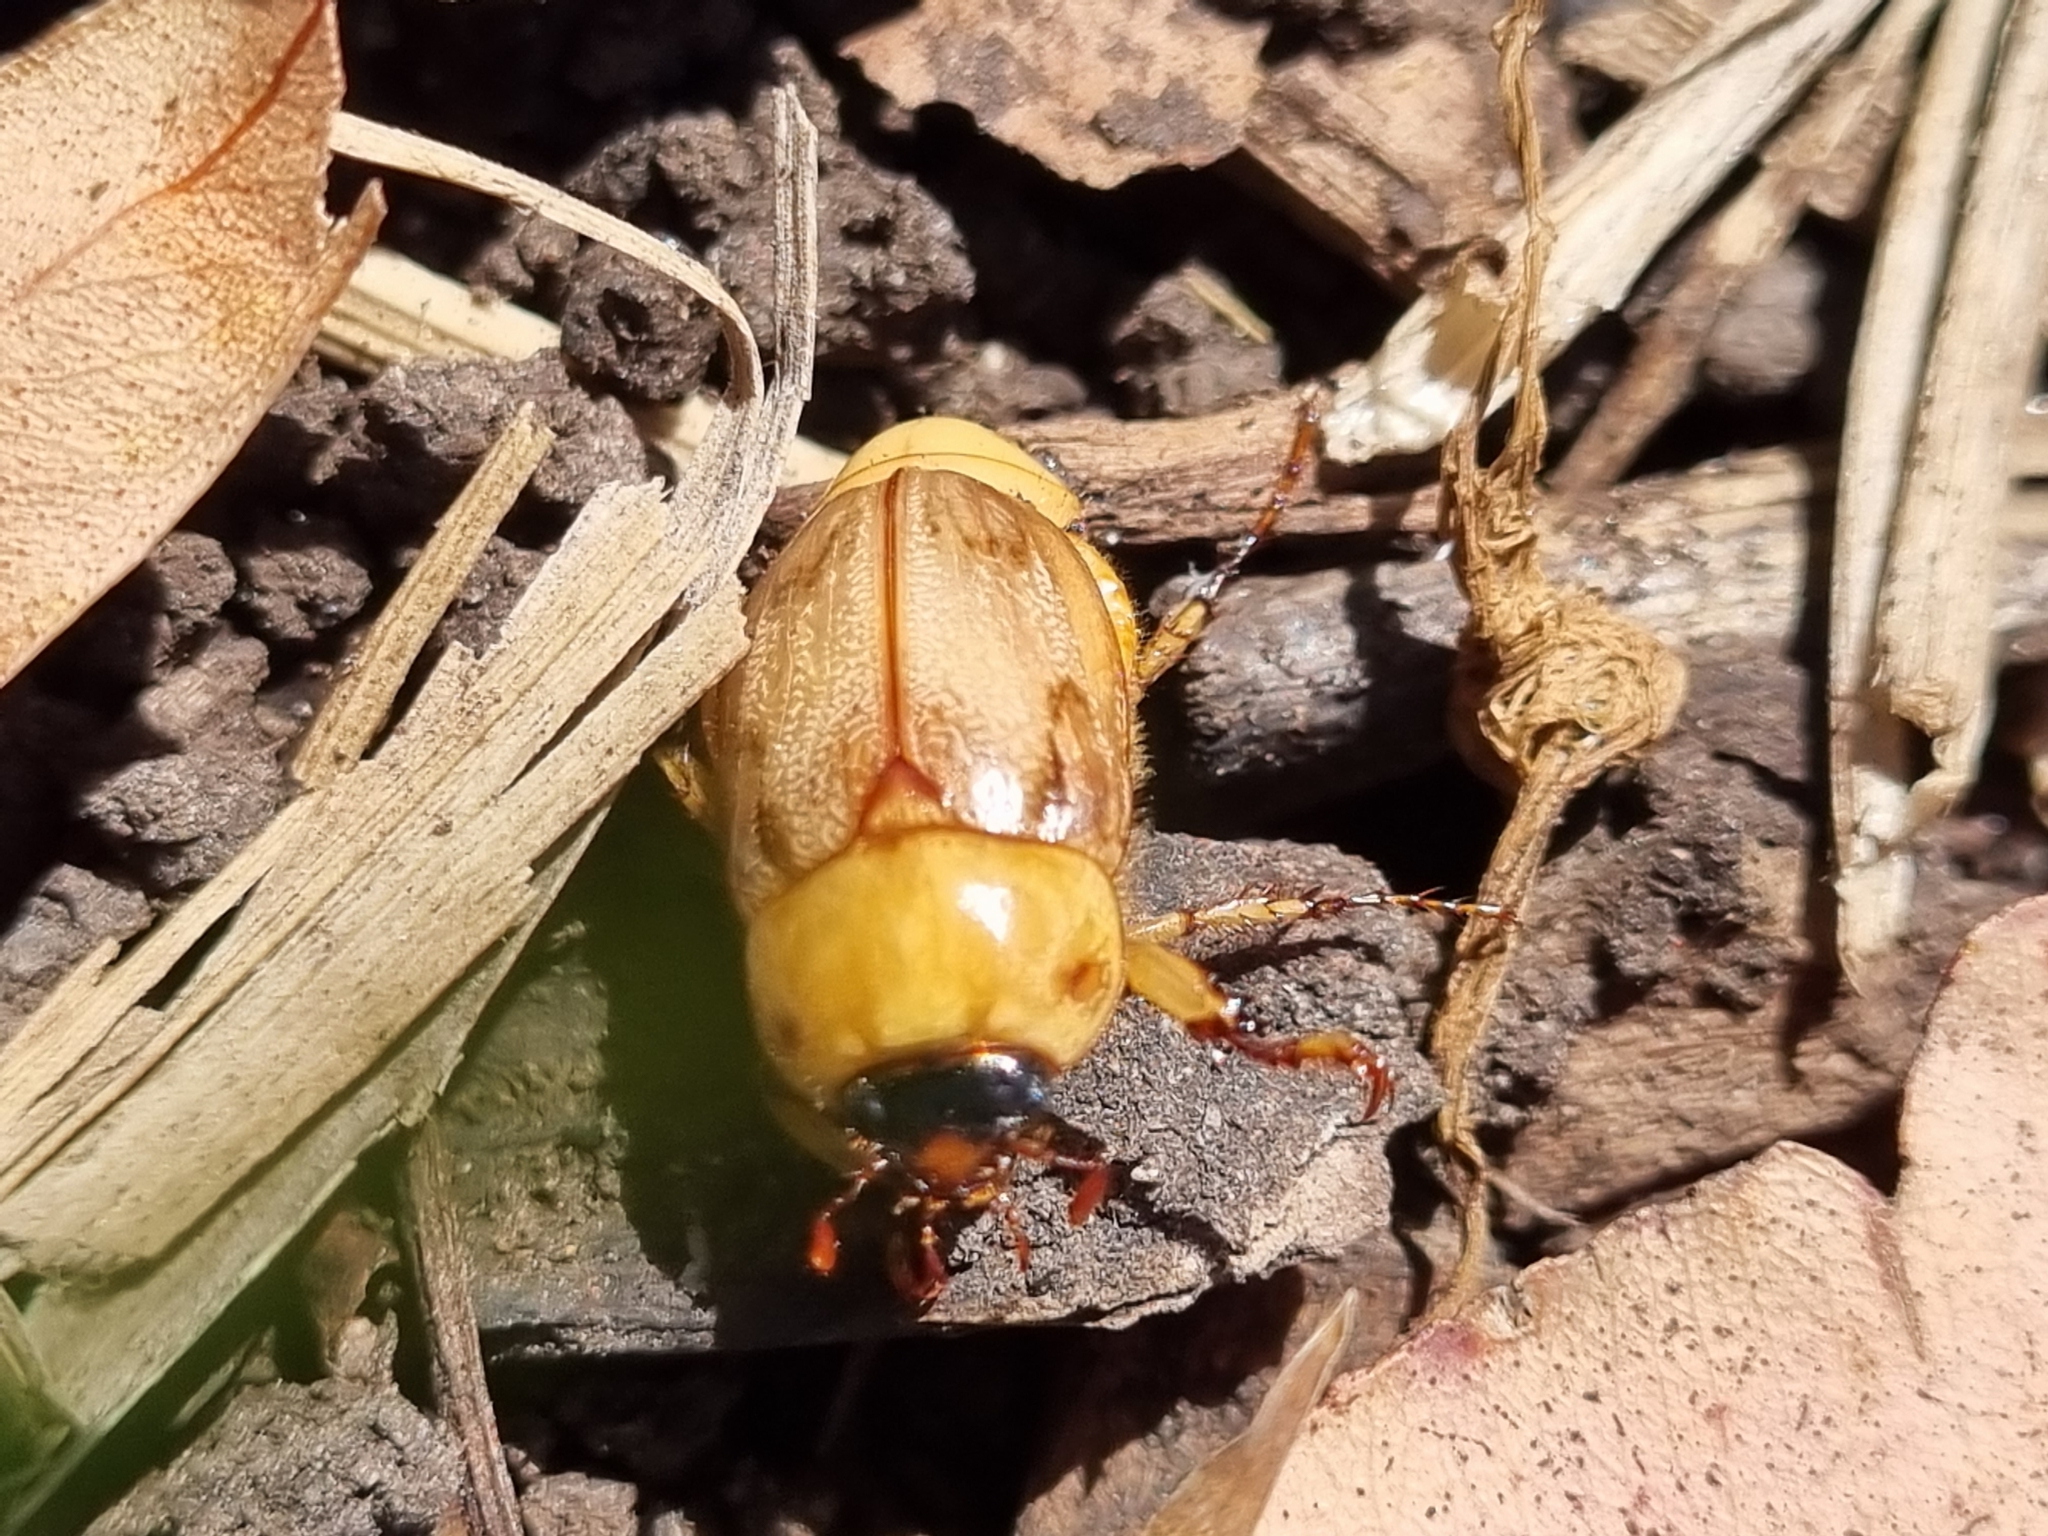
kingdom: Animalia
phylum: Arthropoda
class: Insecta
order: Coleoptera
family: Scarabaeidae
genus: Cyclocephala
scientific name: Cyclocephala signaticollis
